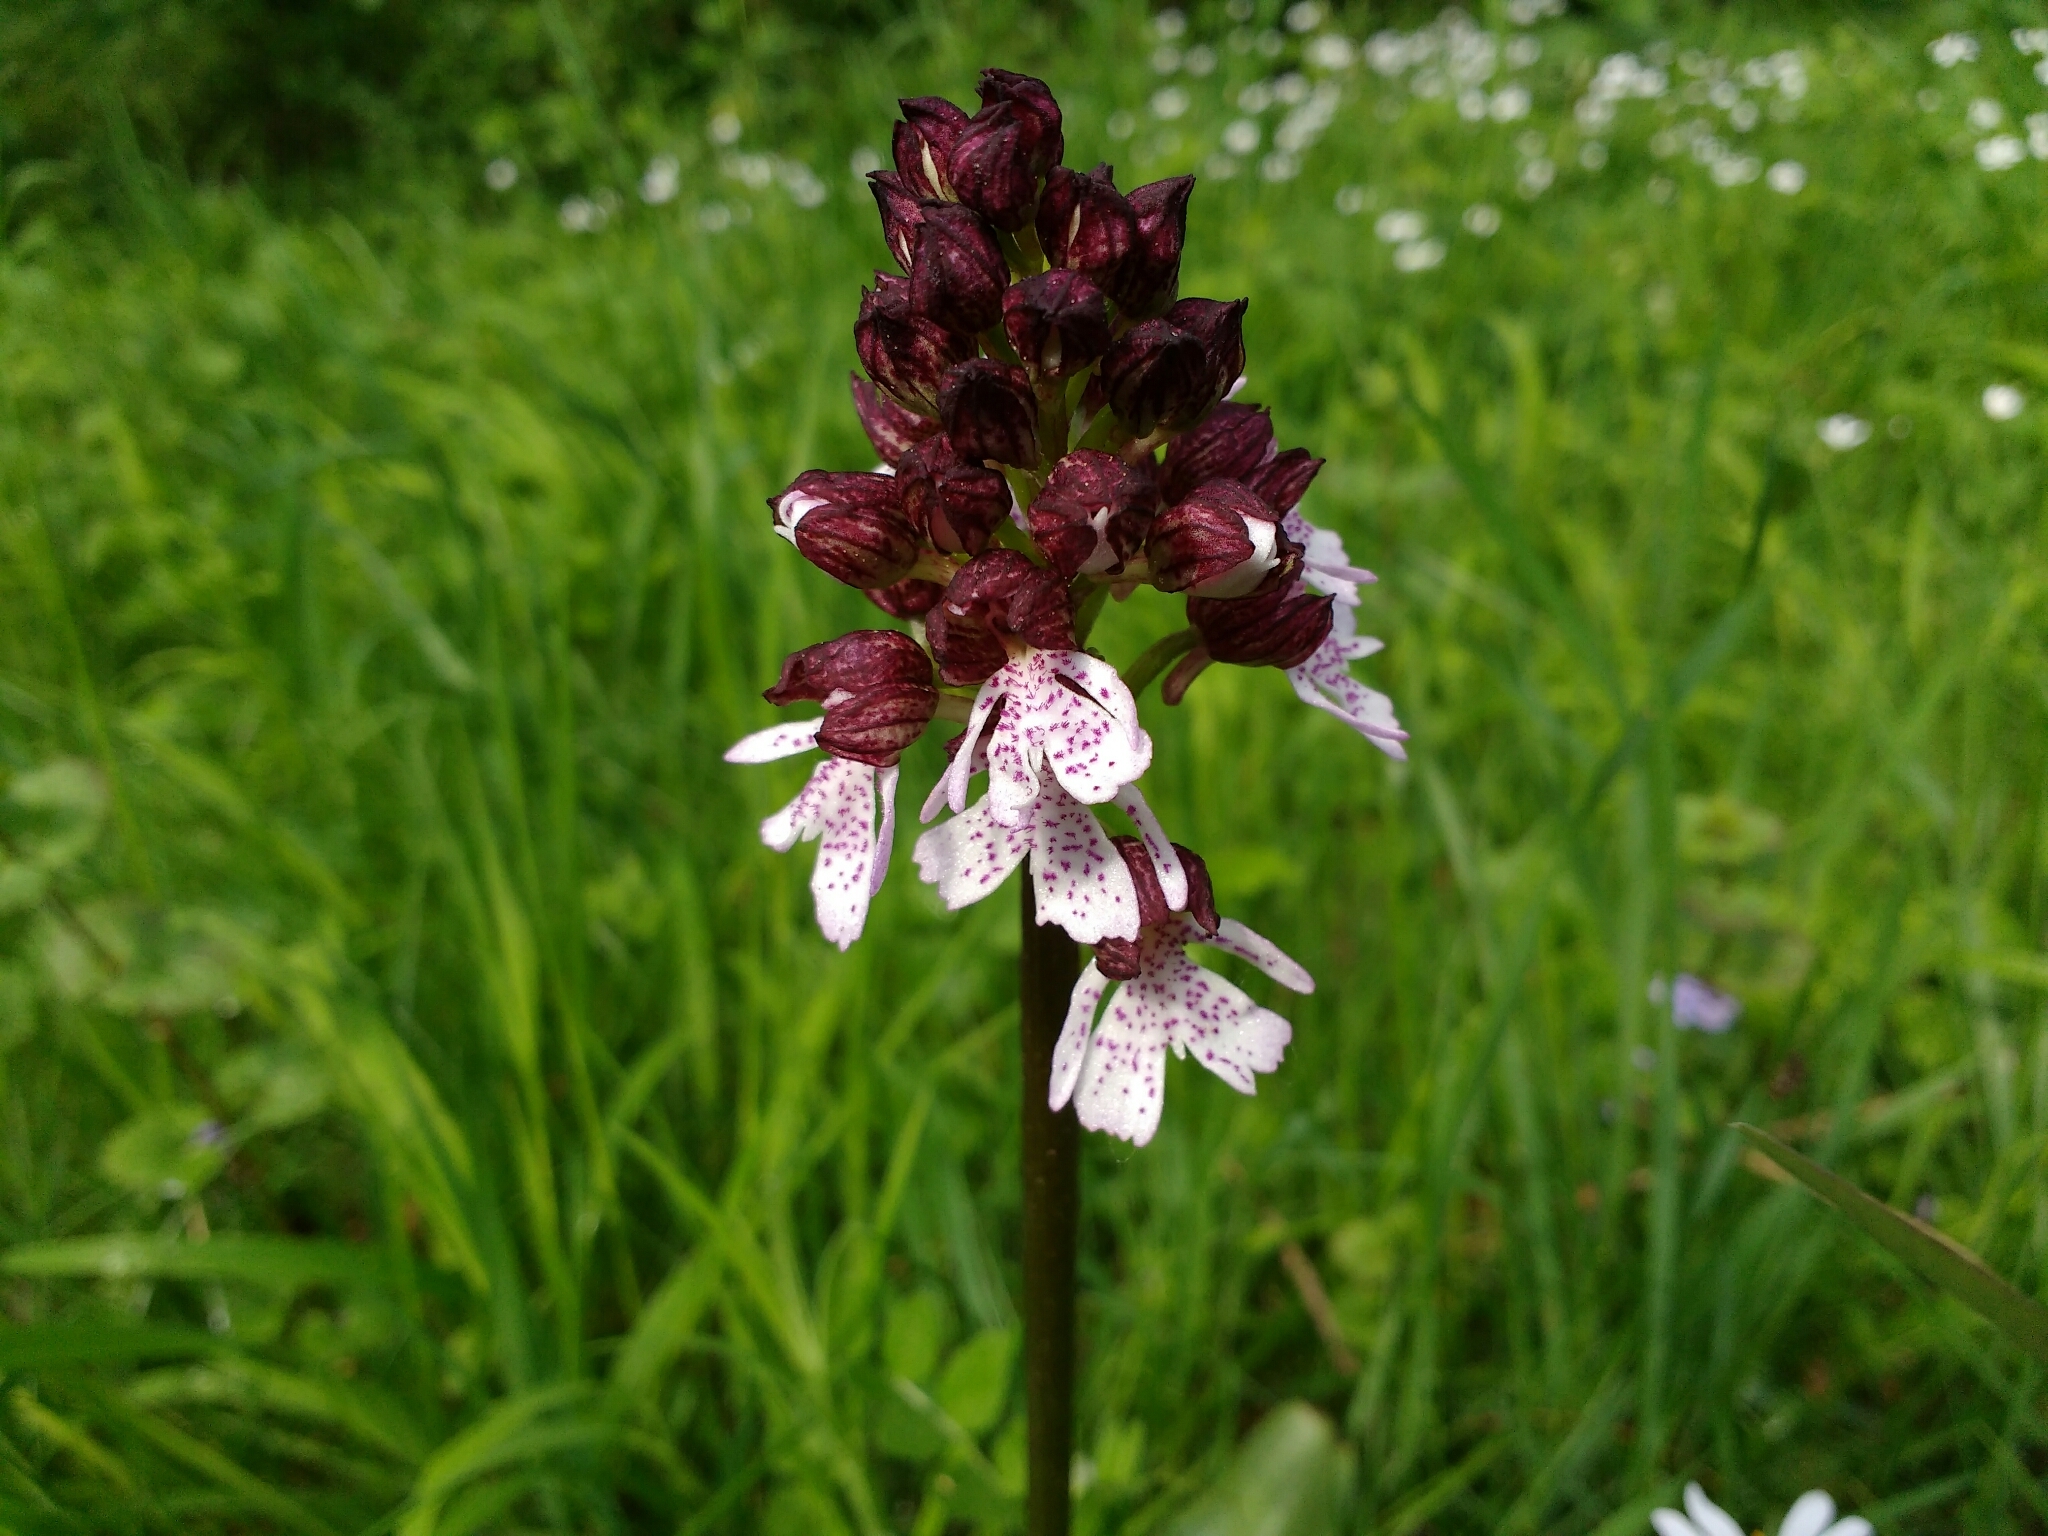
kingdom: Plantae
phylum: Tracheophyta
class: Liliopsida
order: Asparagales
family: Orchidaceae
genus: Orchis
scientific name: Orchis purpurea
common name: Lady orchid
